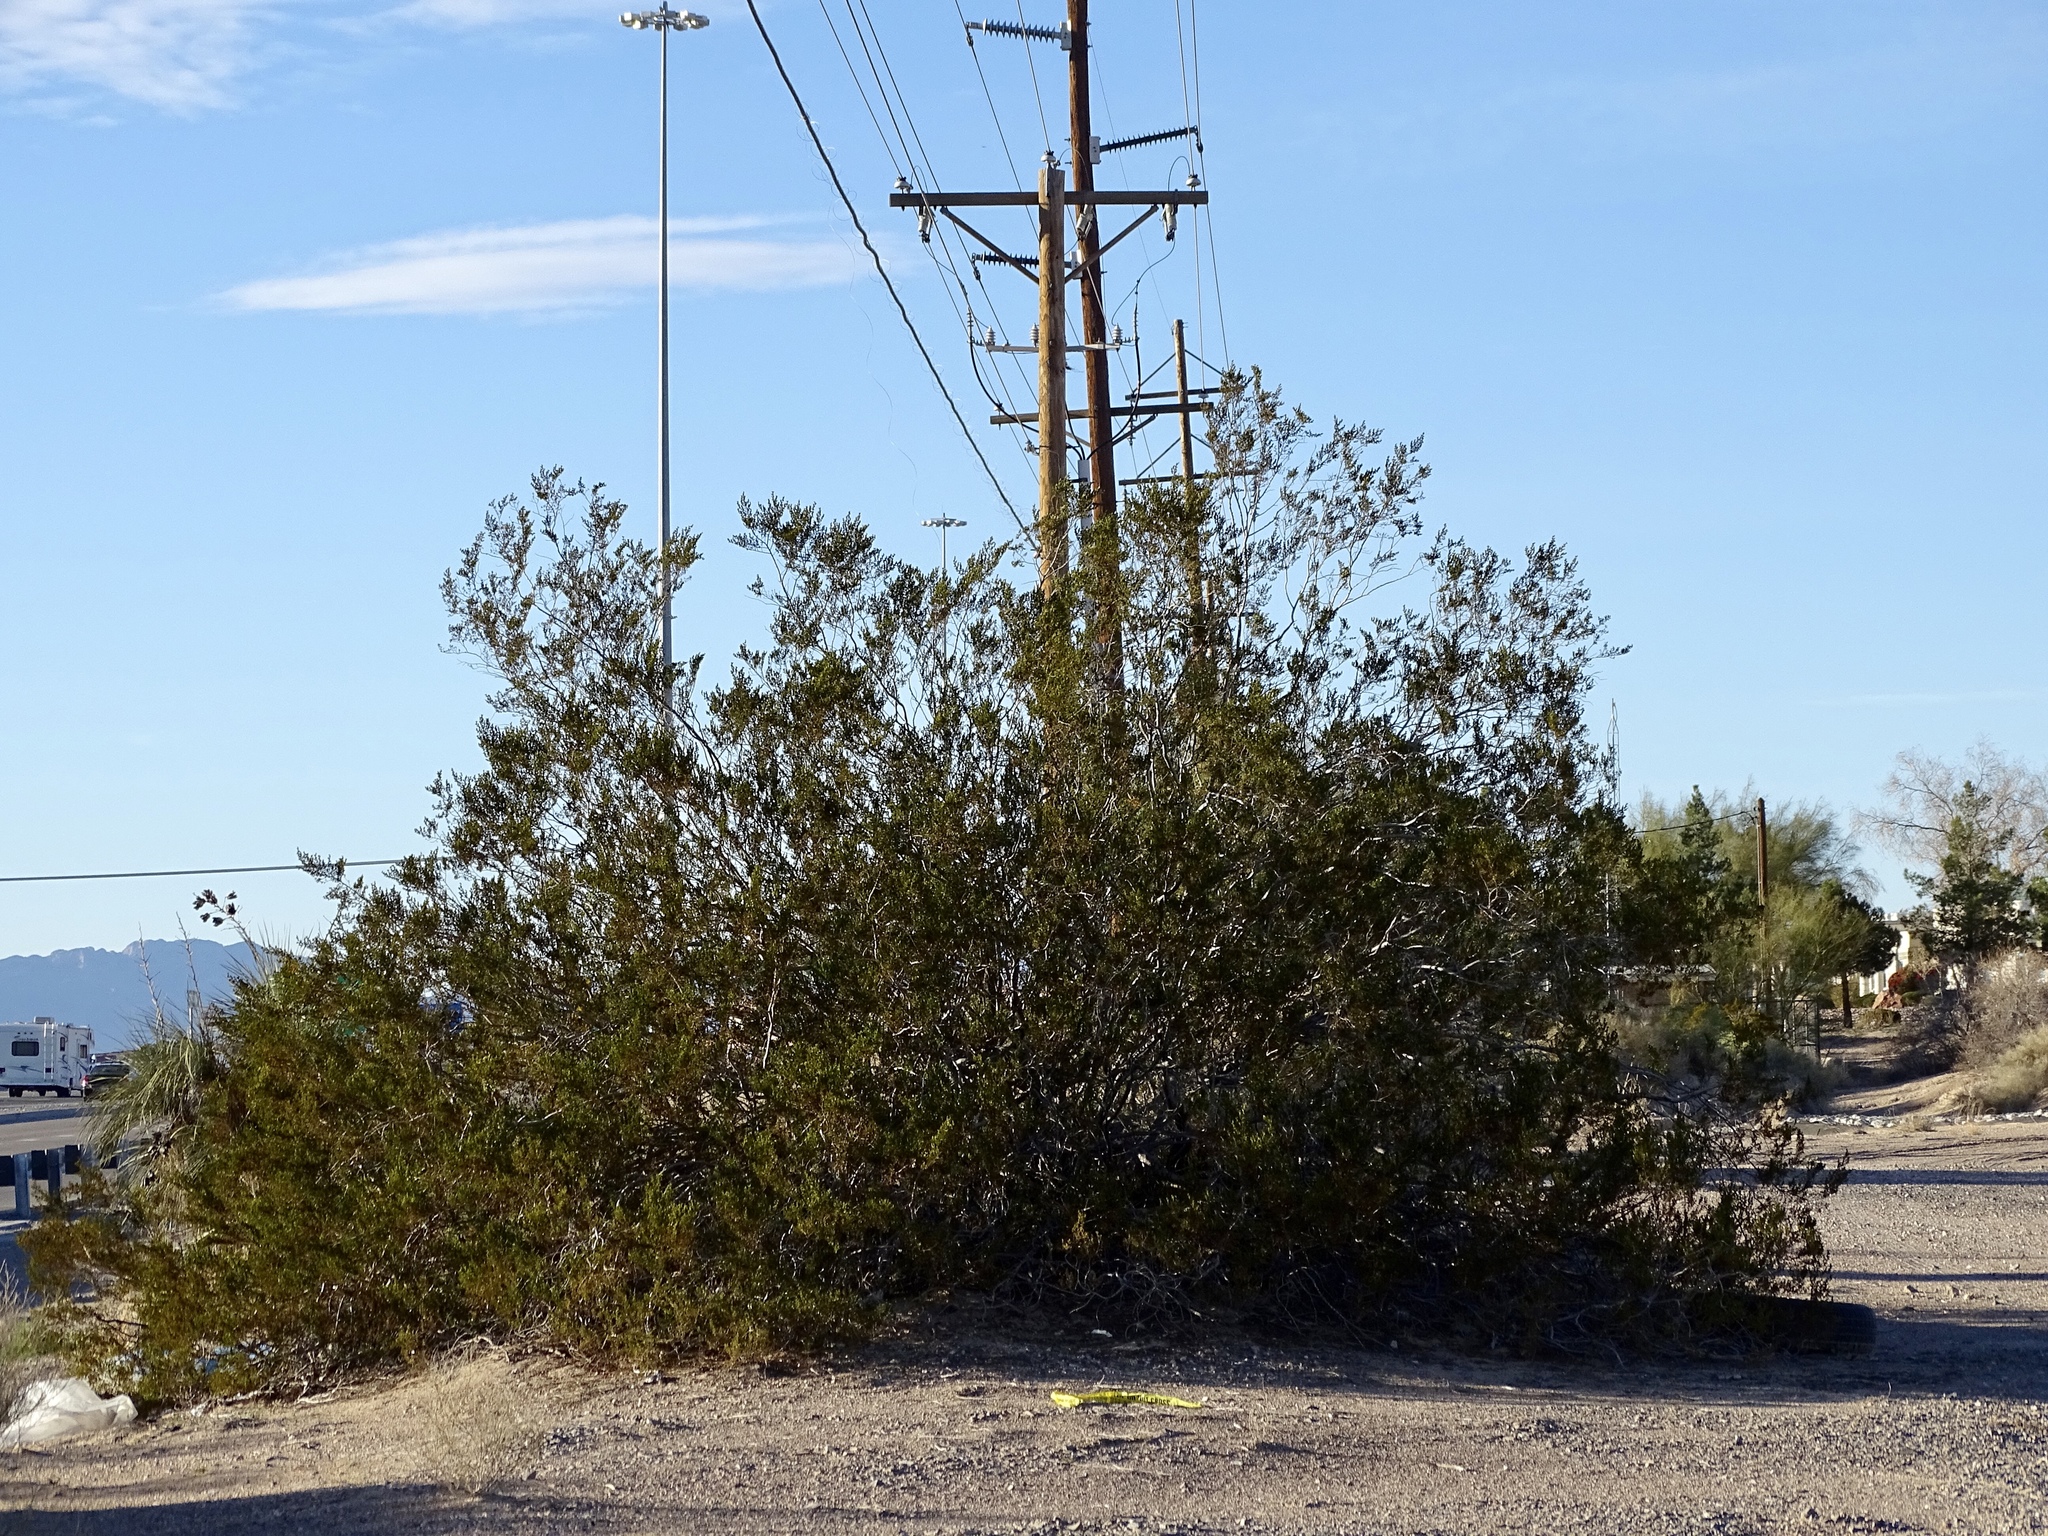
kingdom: Plantae
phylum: Tracheophyta
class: Magnoliopsida
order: Zygophyllales
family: Zygophyllaceae
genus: Larrea
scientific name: Larrea tridentata
